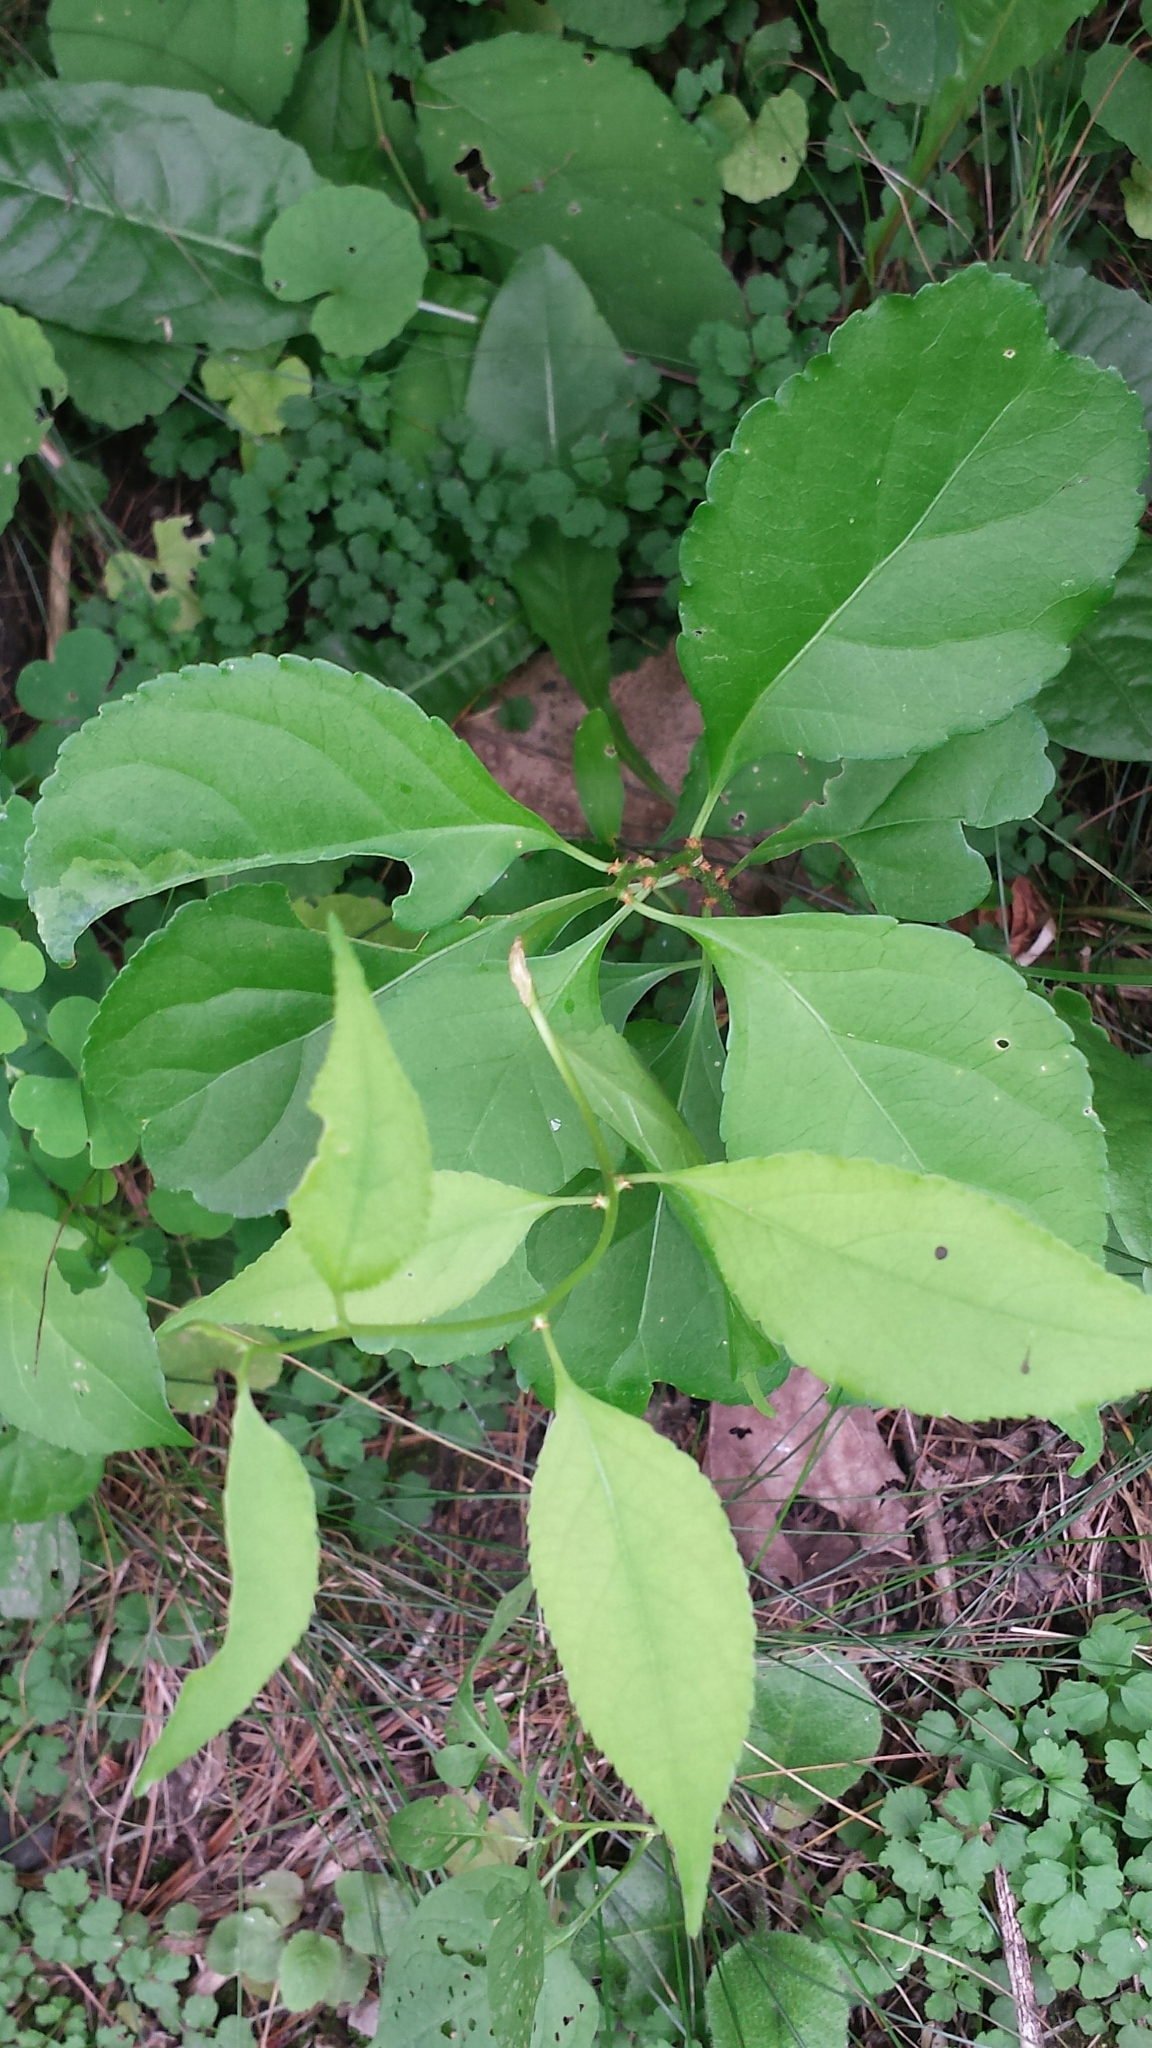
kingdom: Plantae
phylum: Tracheophyta
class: Magnoliopsida
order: Celastrales
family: Celastraceae
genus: Celastrus
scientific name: Celastrus orbiculatus
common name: Oriental bittersweet
